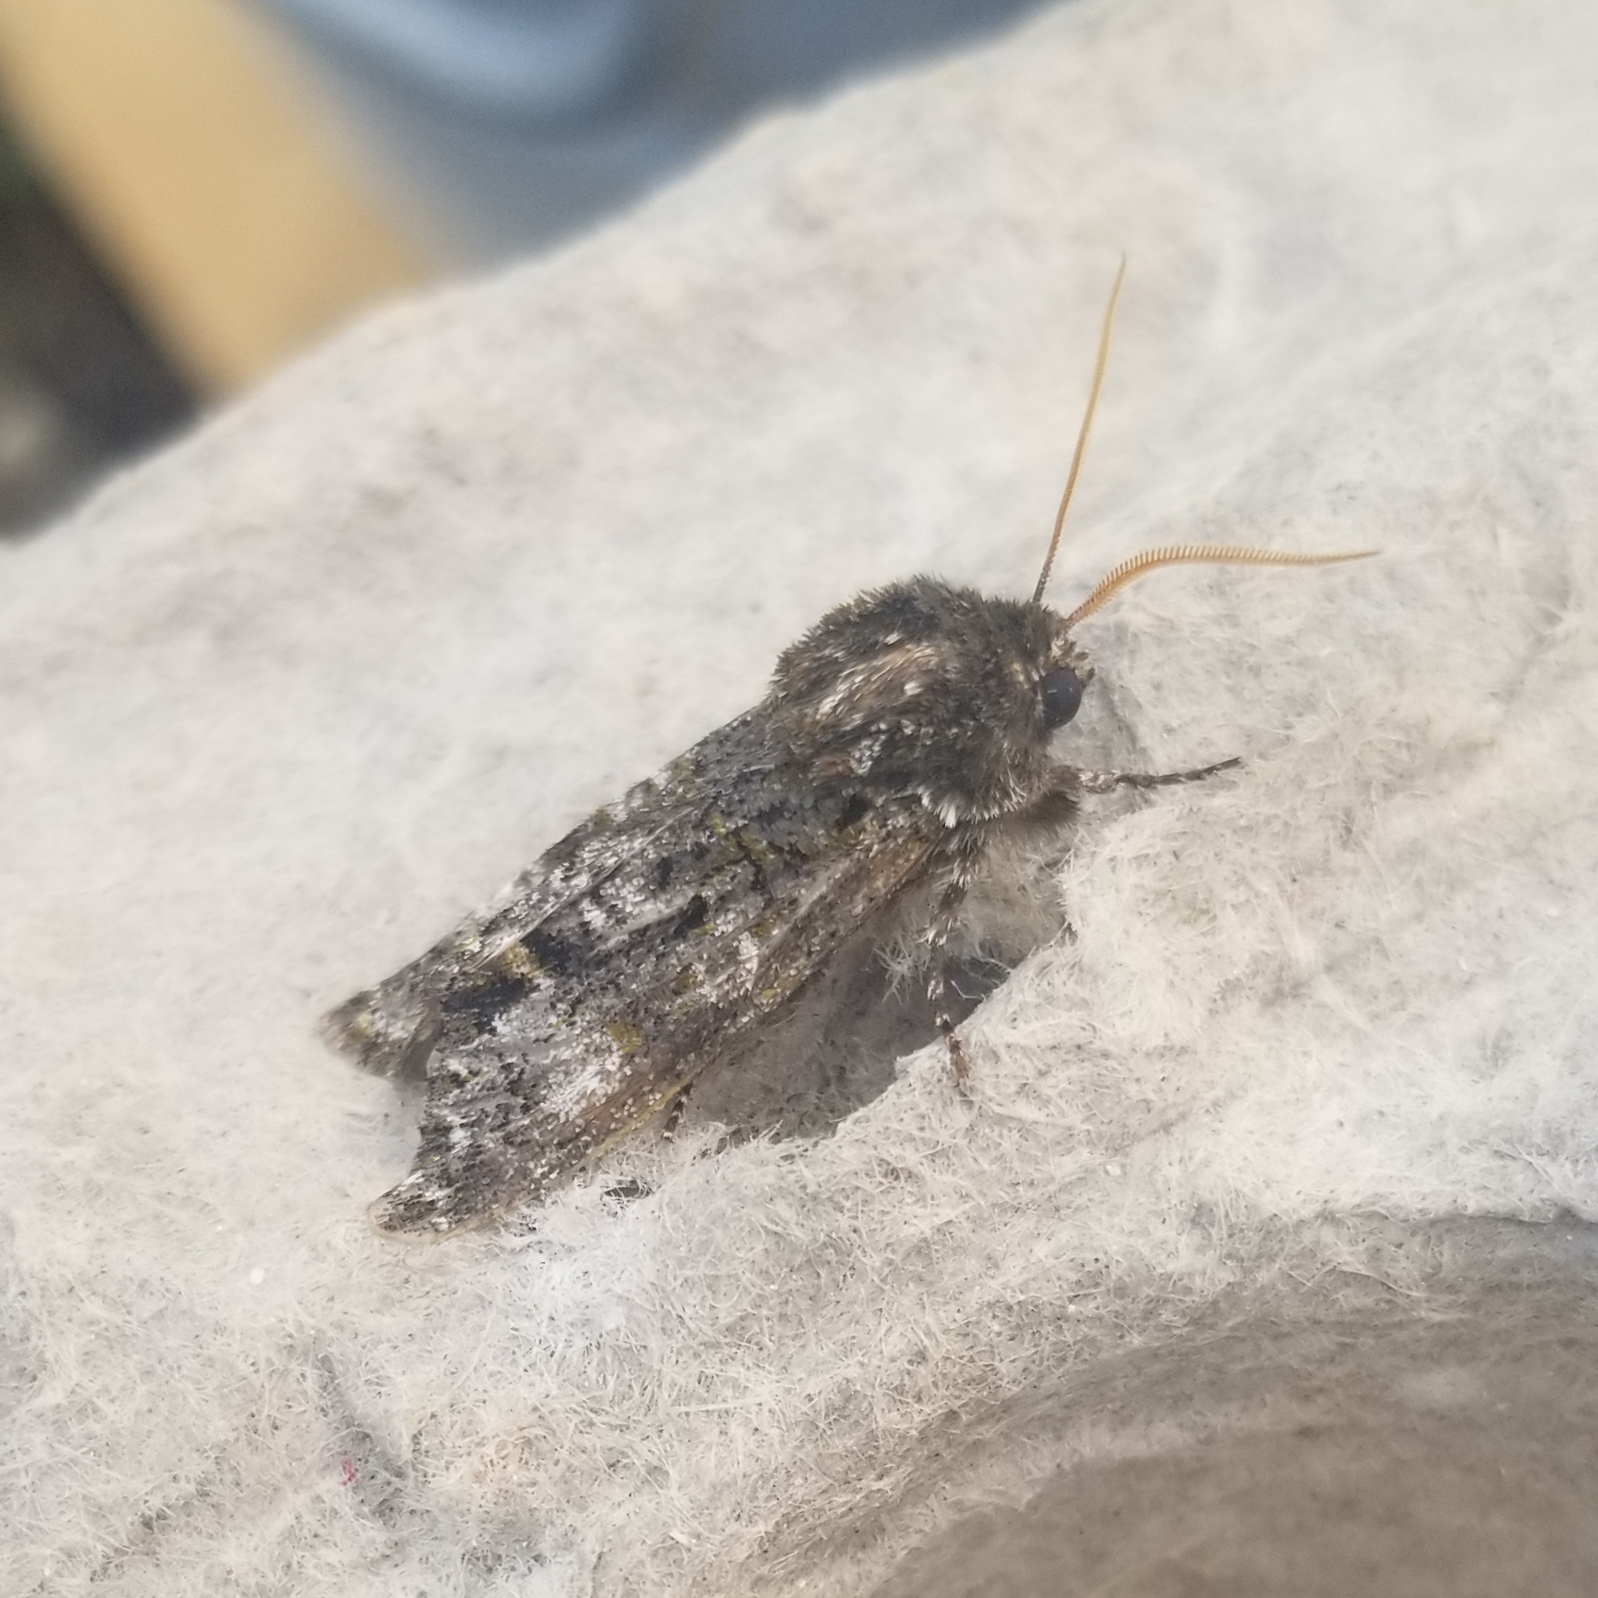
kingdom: Animalia
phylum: Arthropoda
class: Insecta
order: Lepidoptera
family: Noctuidae
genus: Psaphida
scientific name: Psaphida grotei
